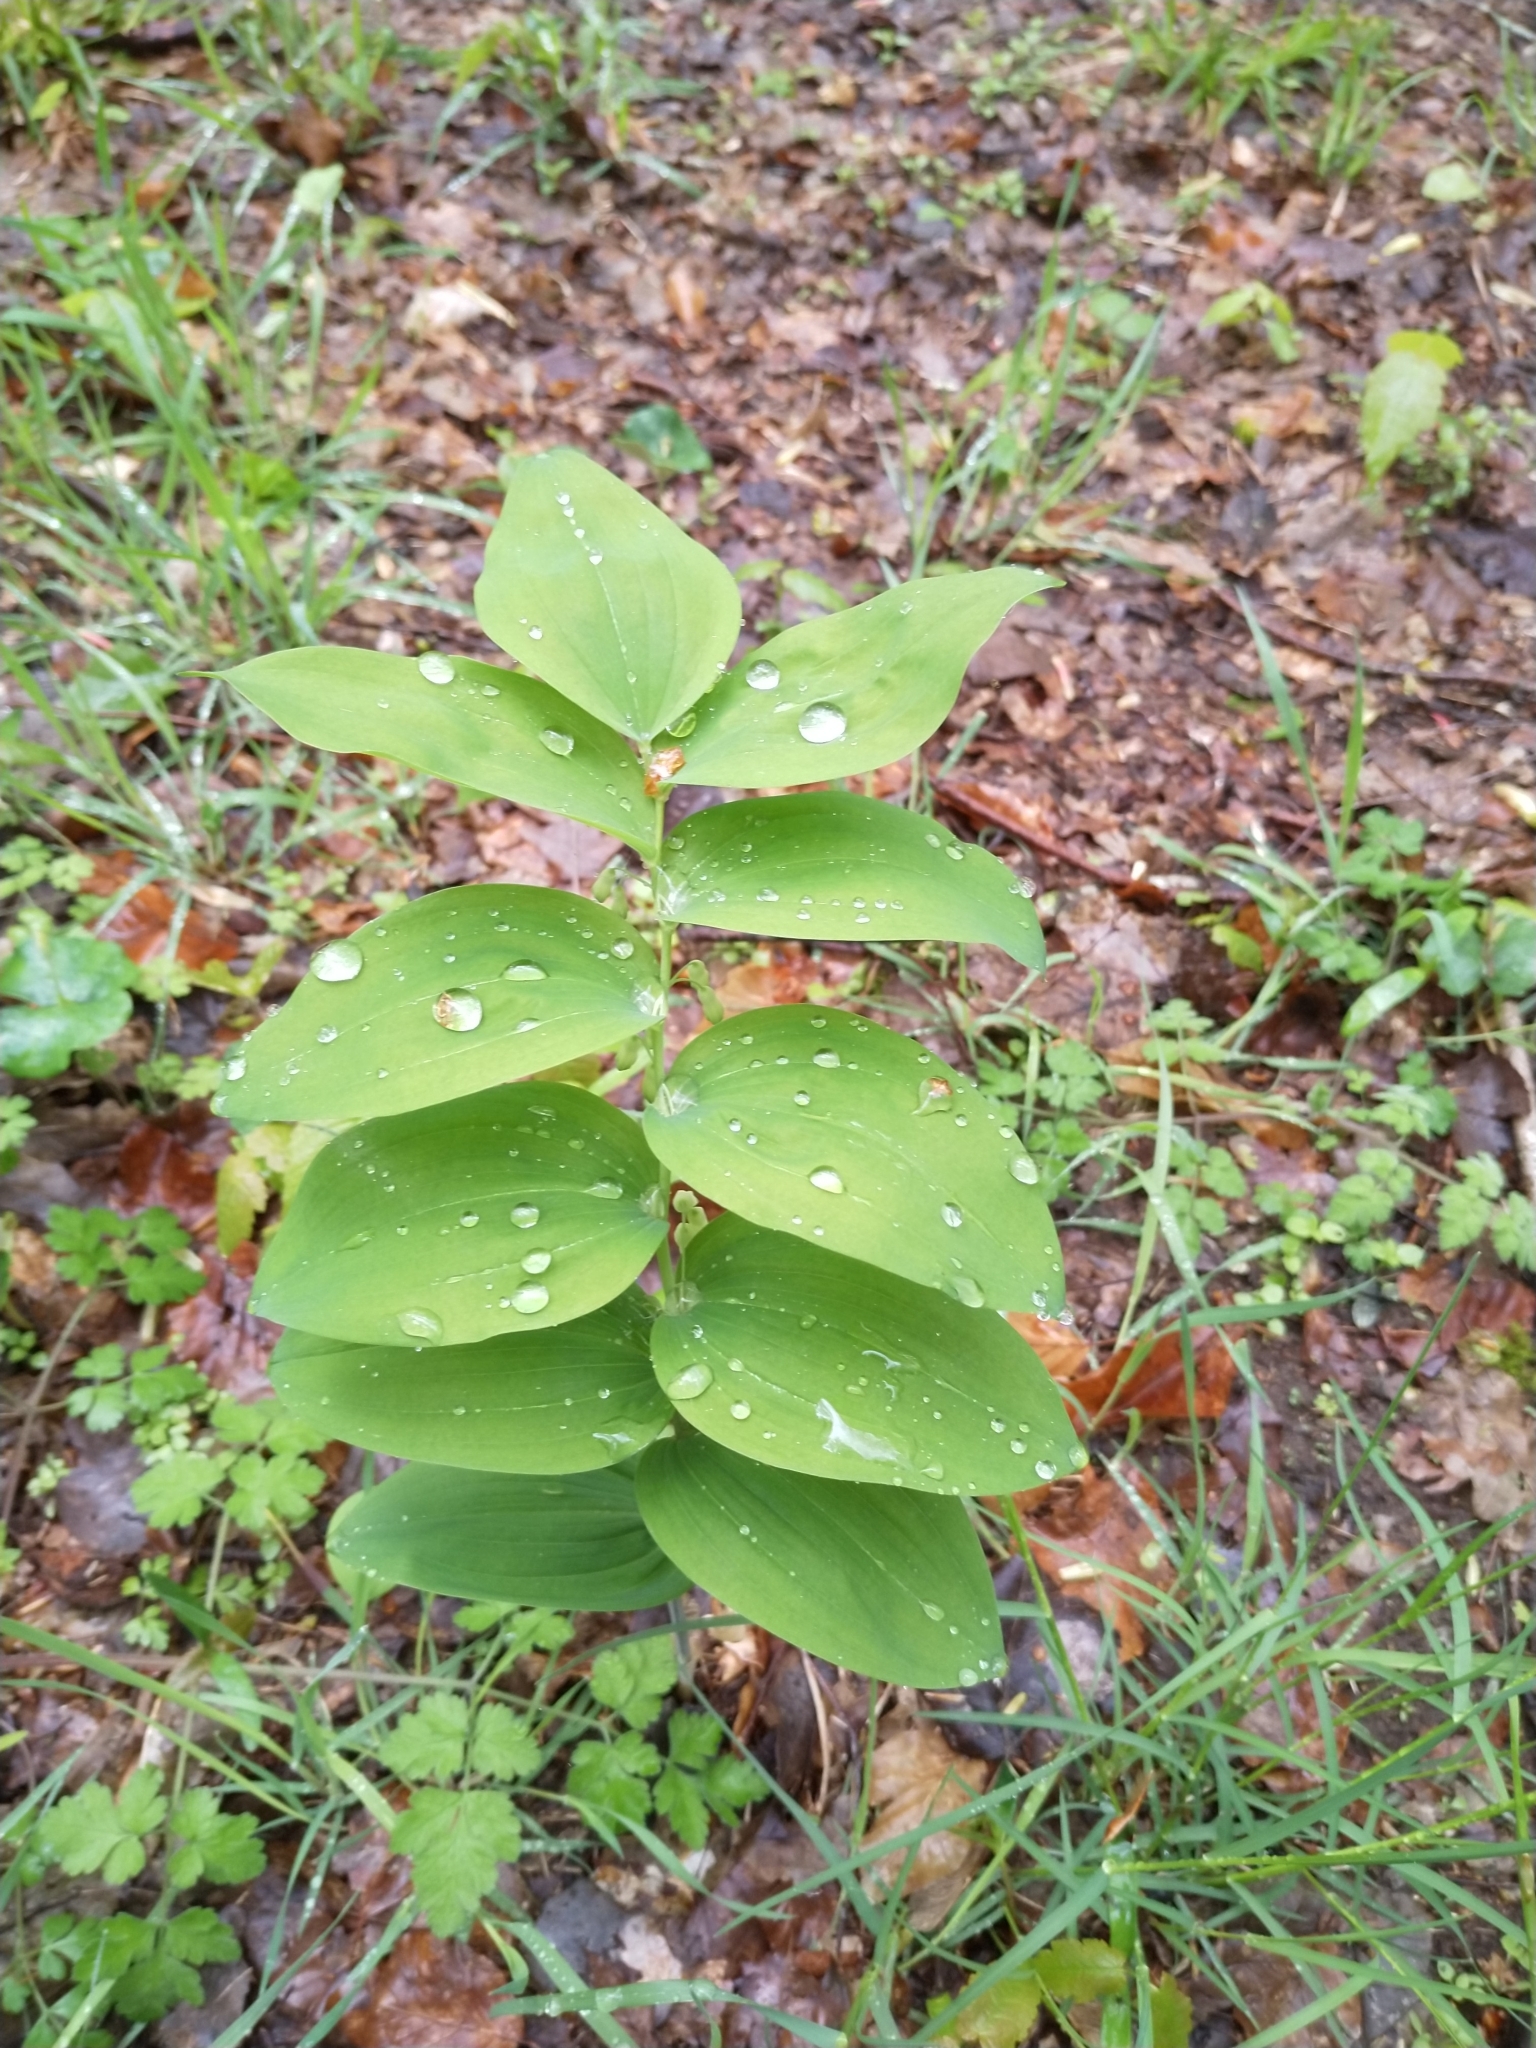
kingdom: Plantae
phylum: Tracheophyta
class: Liliopsida
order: Asparagales
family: Asparagaceae
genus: Polygonatum
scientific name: Polygonatum multiflorum
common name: Solomon's-seal
